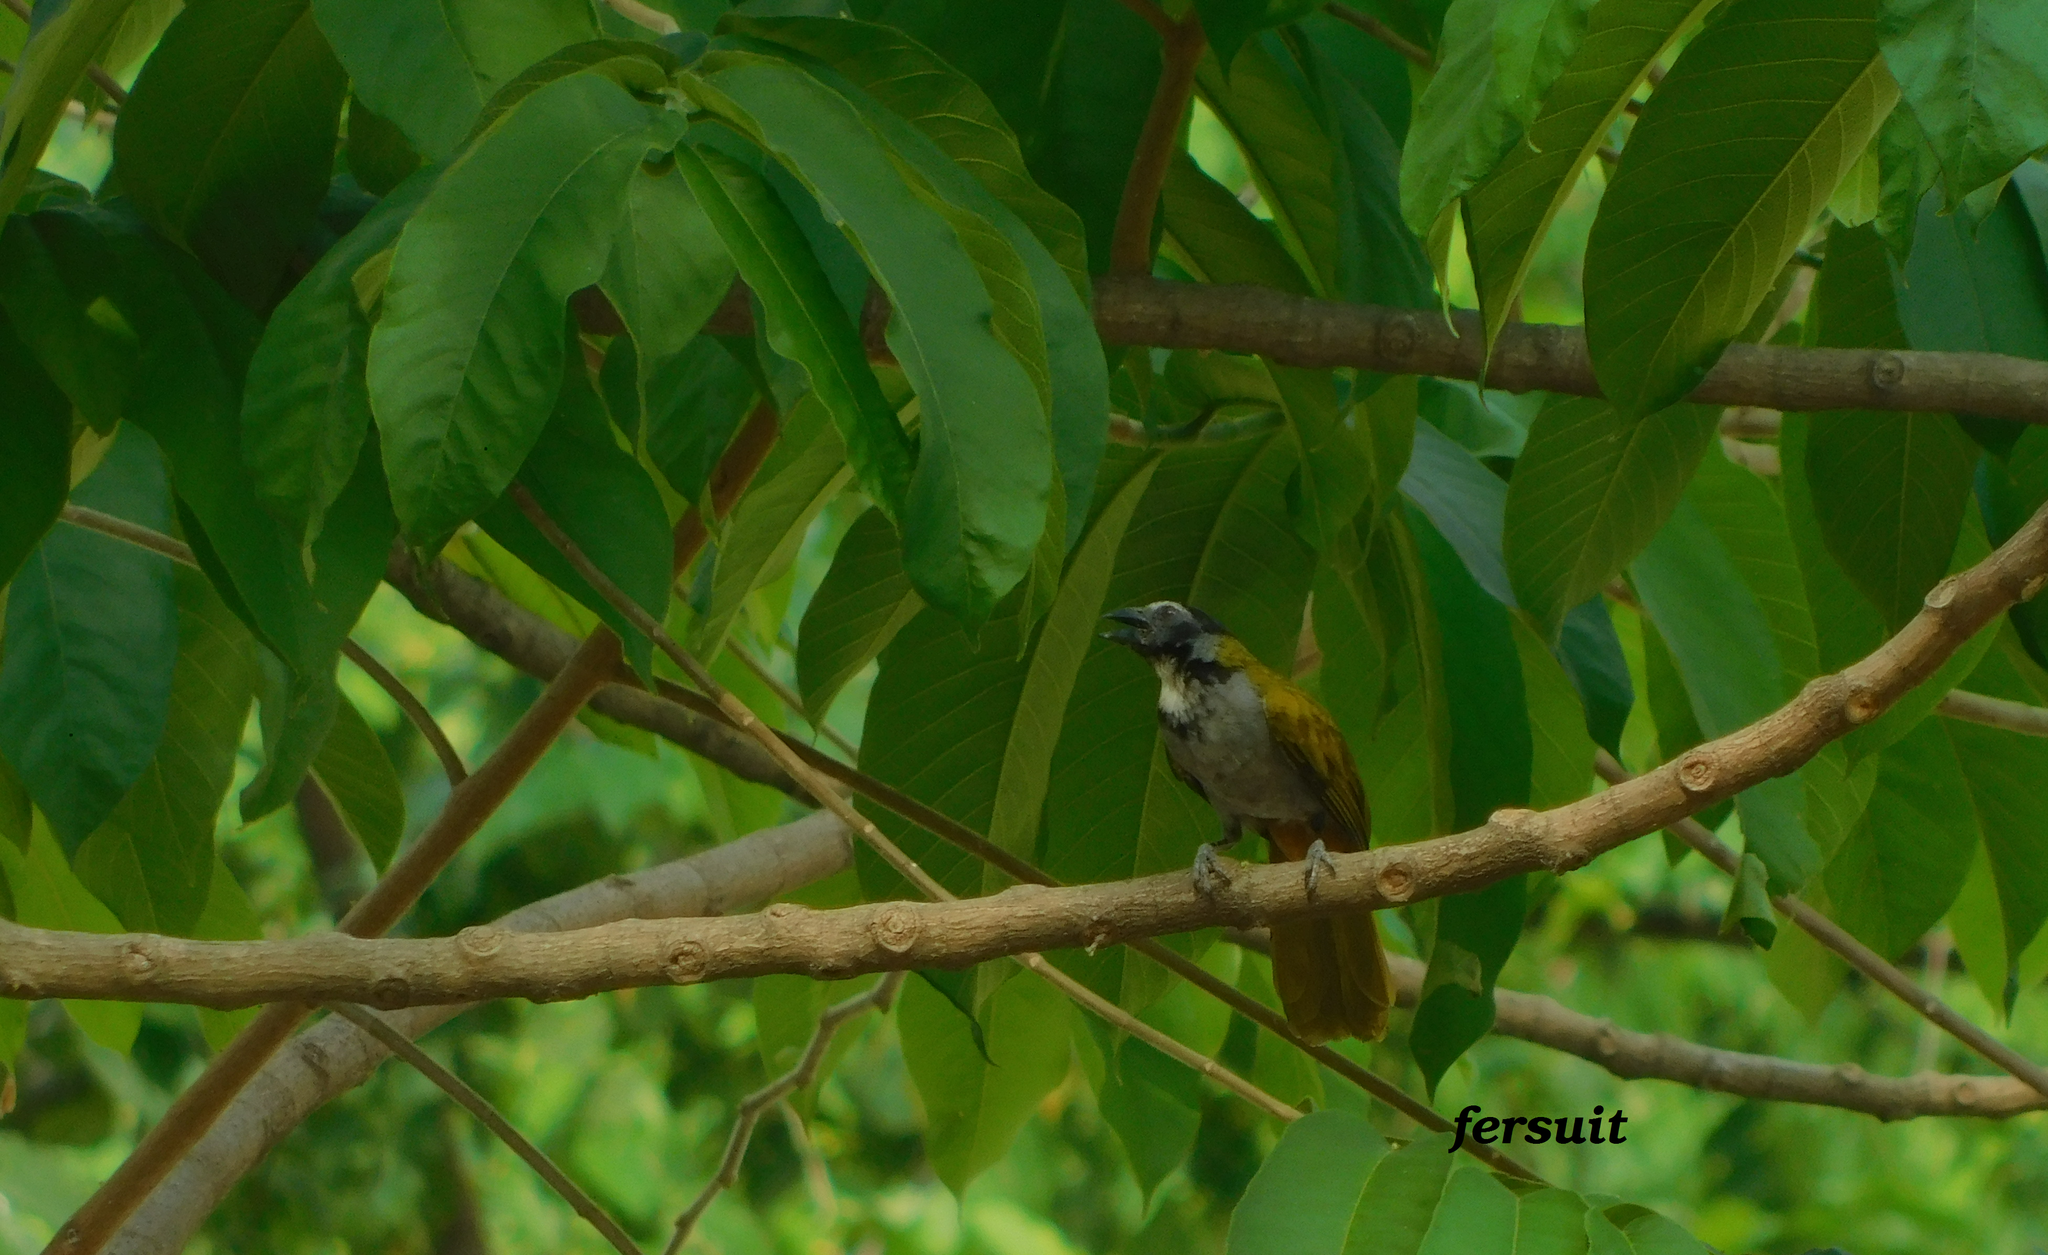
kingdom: Animalia
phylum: Chordata
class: Aves
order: Passeriformes
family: Thraupidae
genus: Saltator
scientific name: Saltator atriceps
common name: Black-headed saltator
